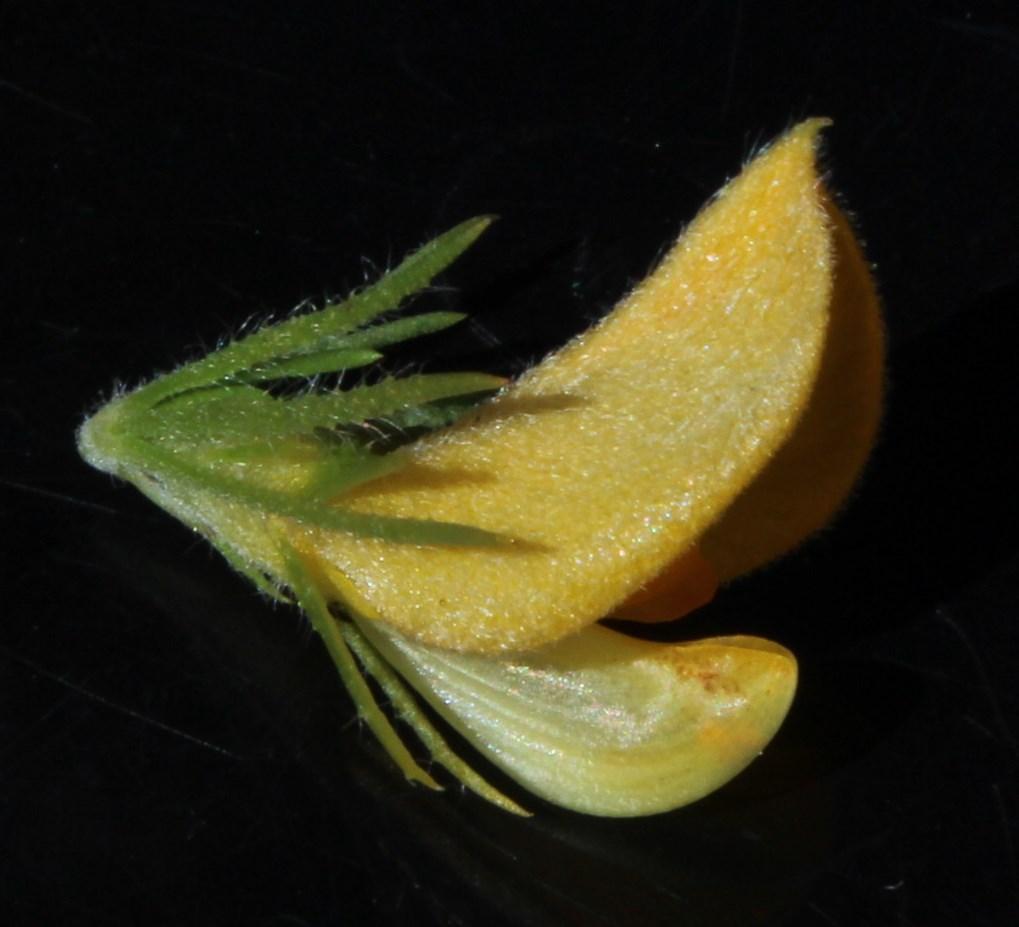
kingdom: Plantae
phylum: Tracheophyta
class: Magnoliopsida
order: Fabales
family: Fabaceae
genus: Aspalathus
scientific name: Aspalathus spicata
